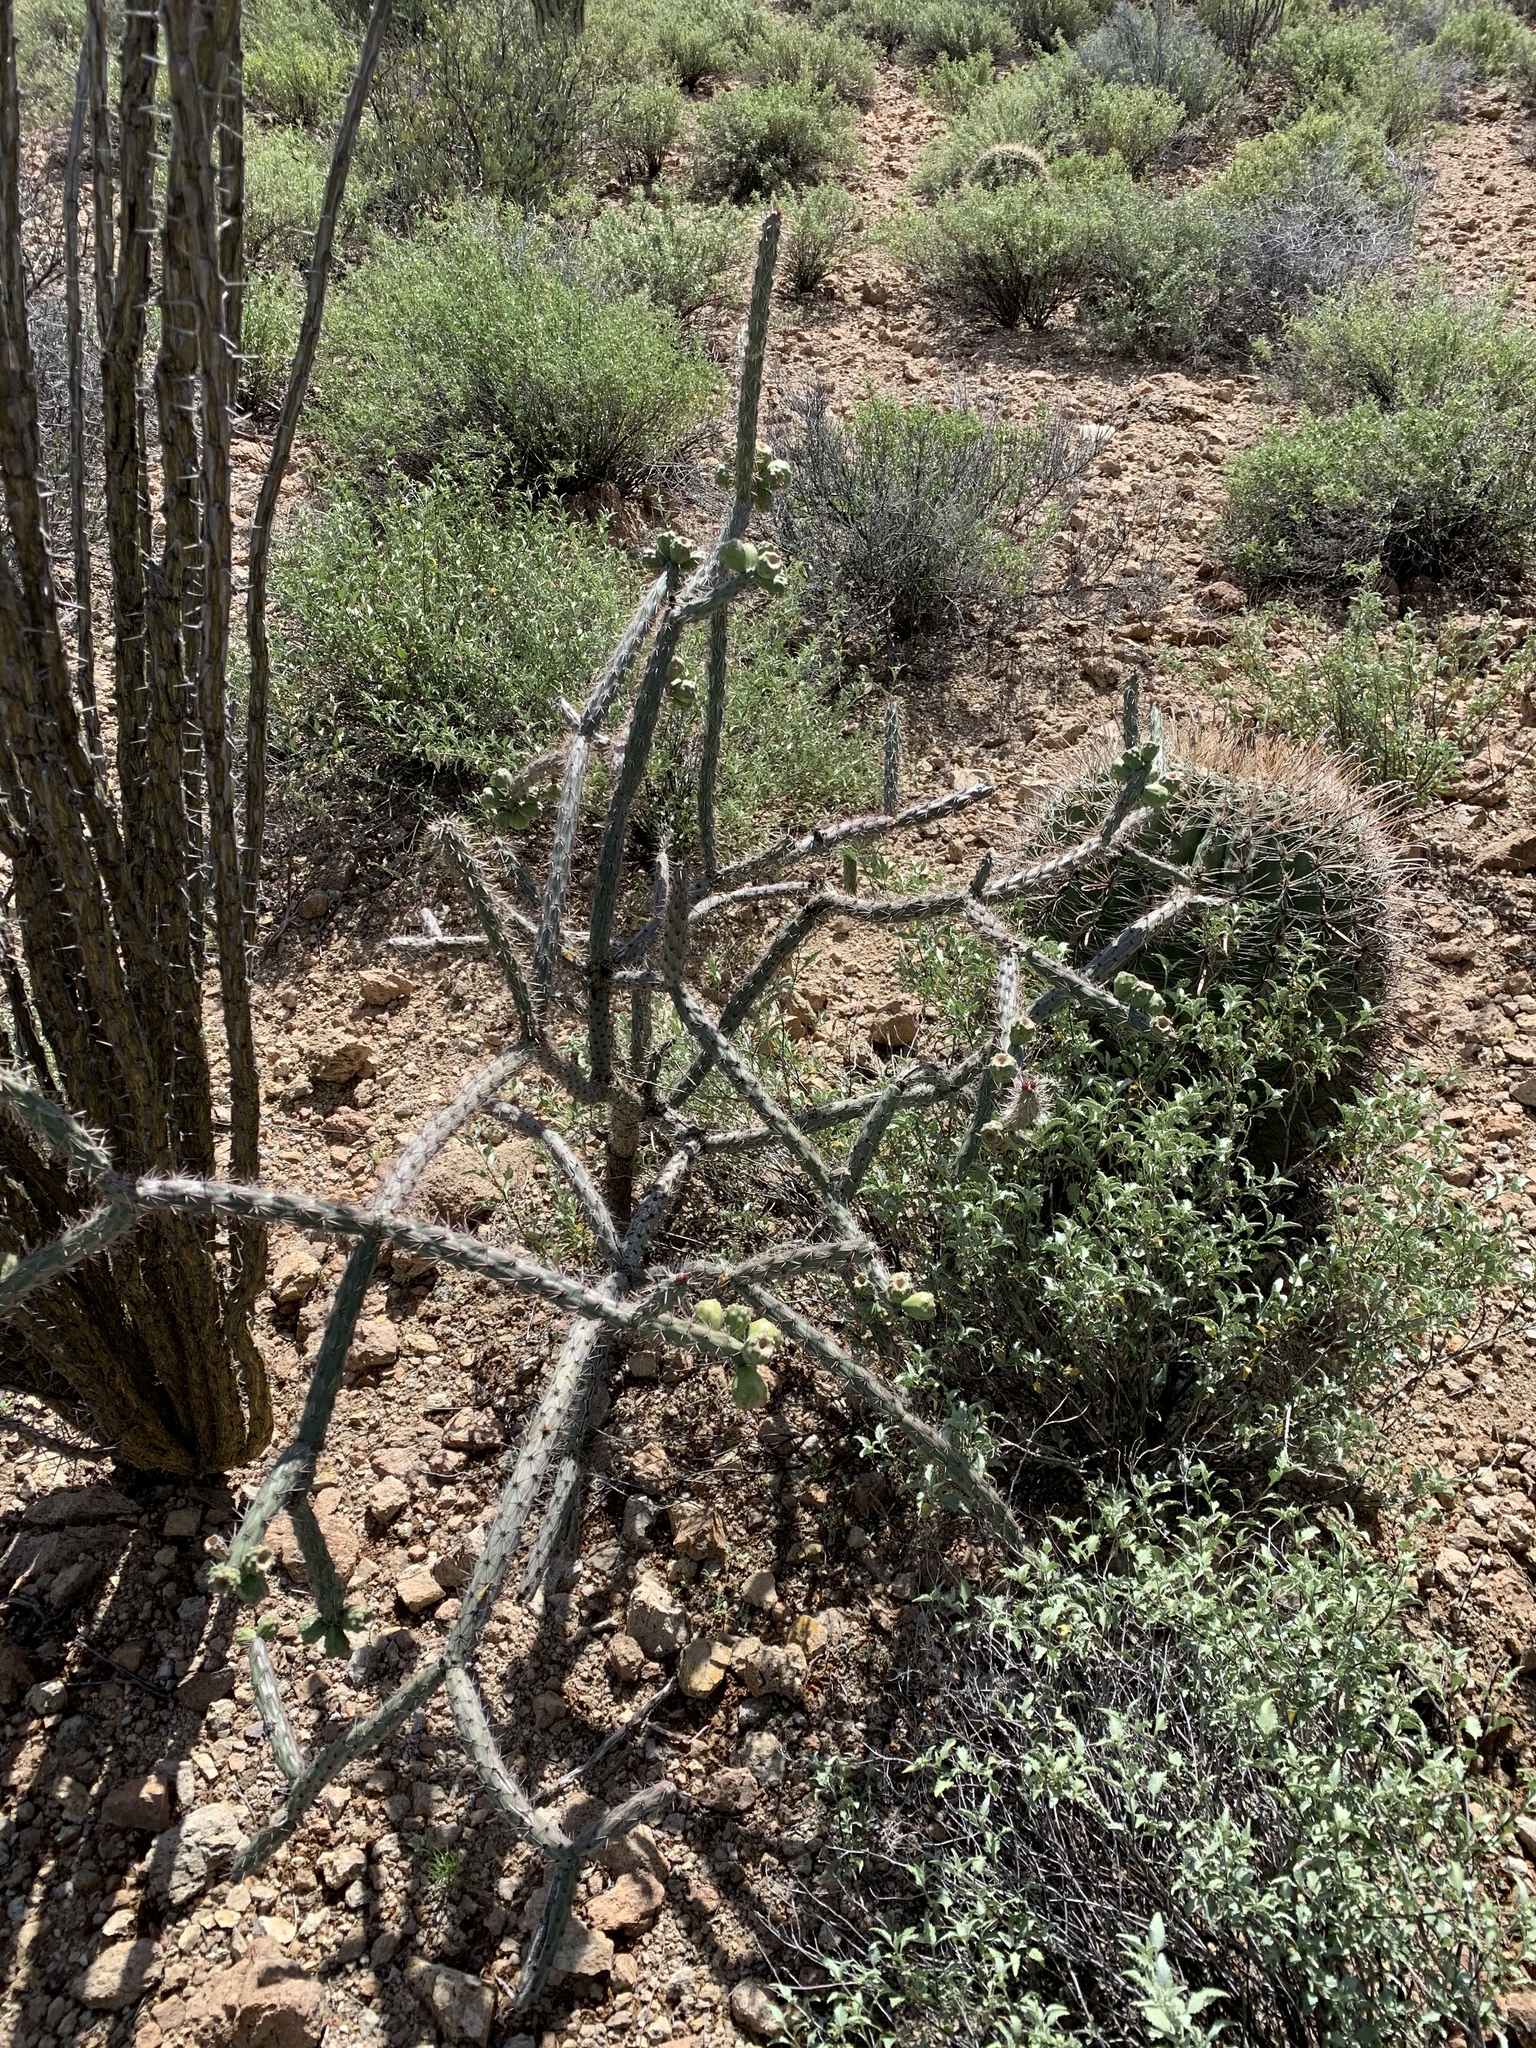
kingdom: Plantae
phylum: Tracheophyta
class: Magnoliopsida
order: Caryophyllales
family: Cactaceae
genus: Cylindropuntia
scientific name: Cylindropuntia thurberi
